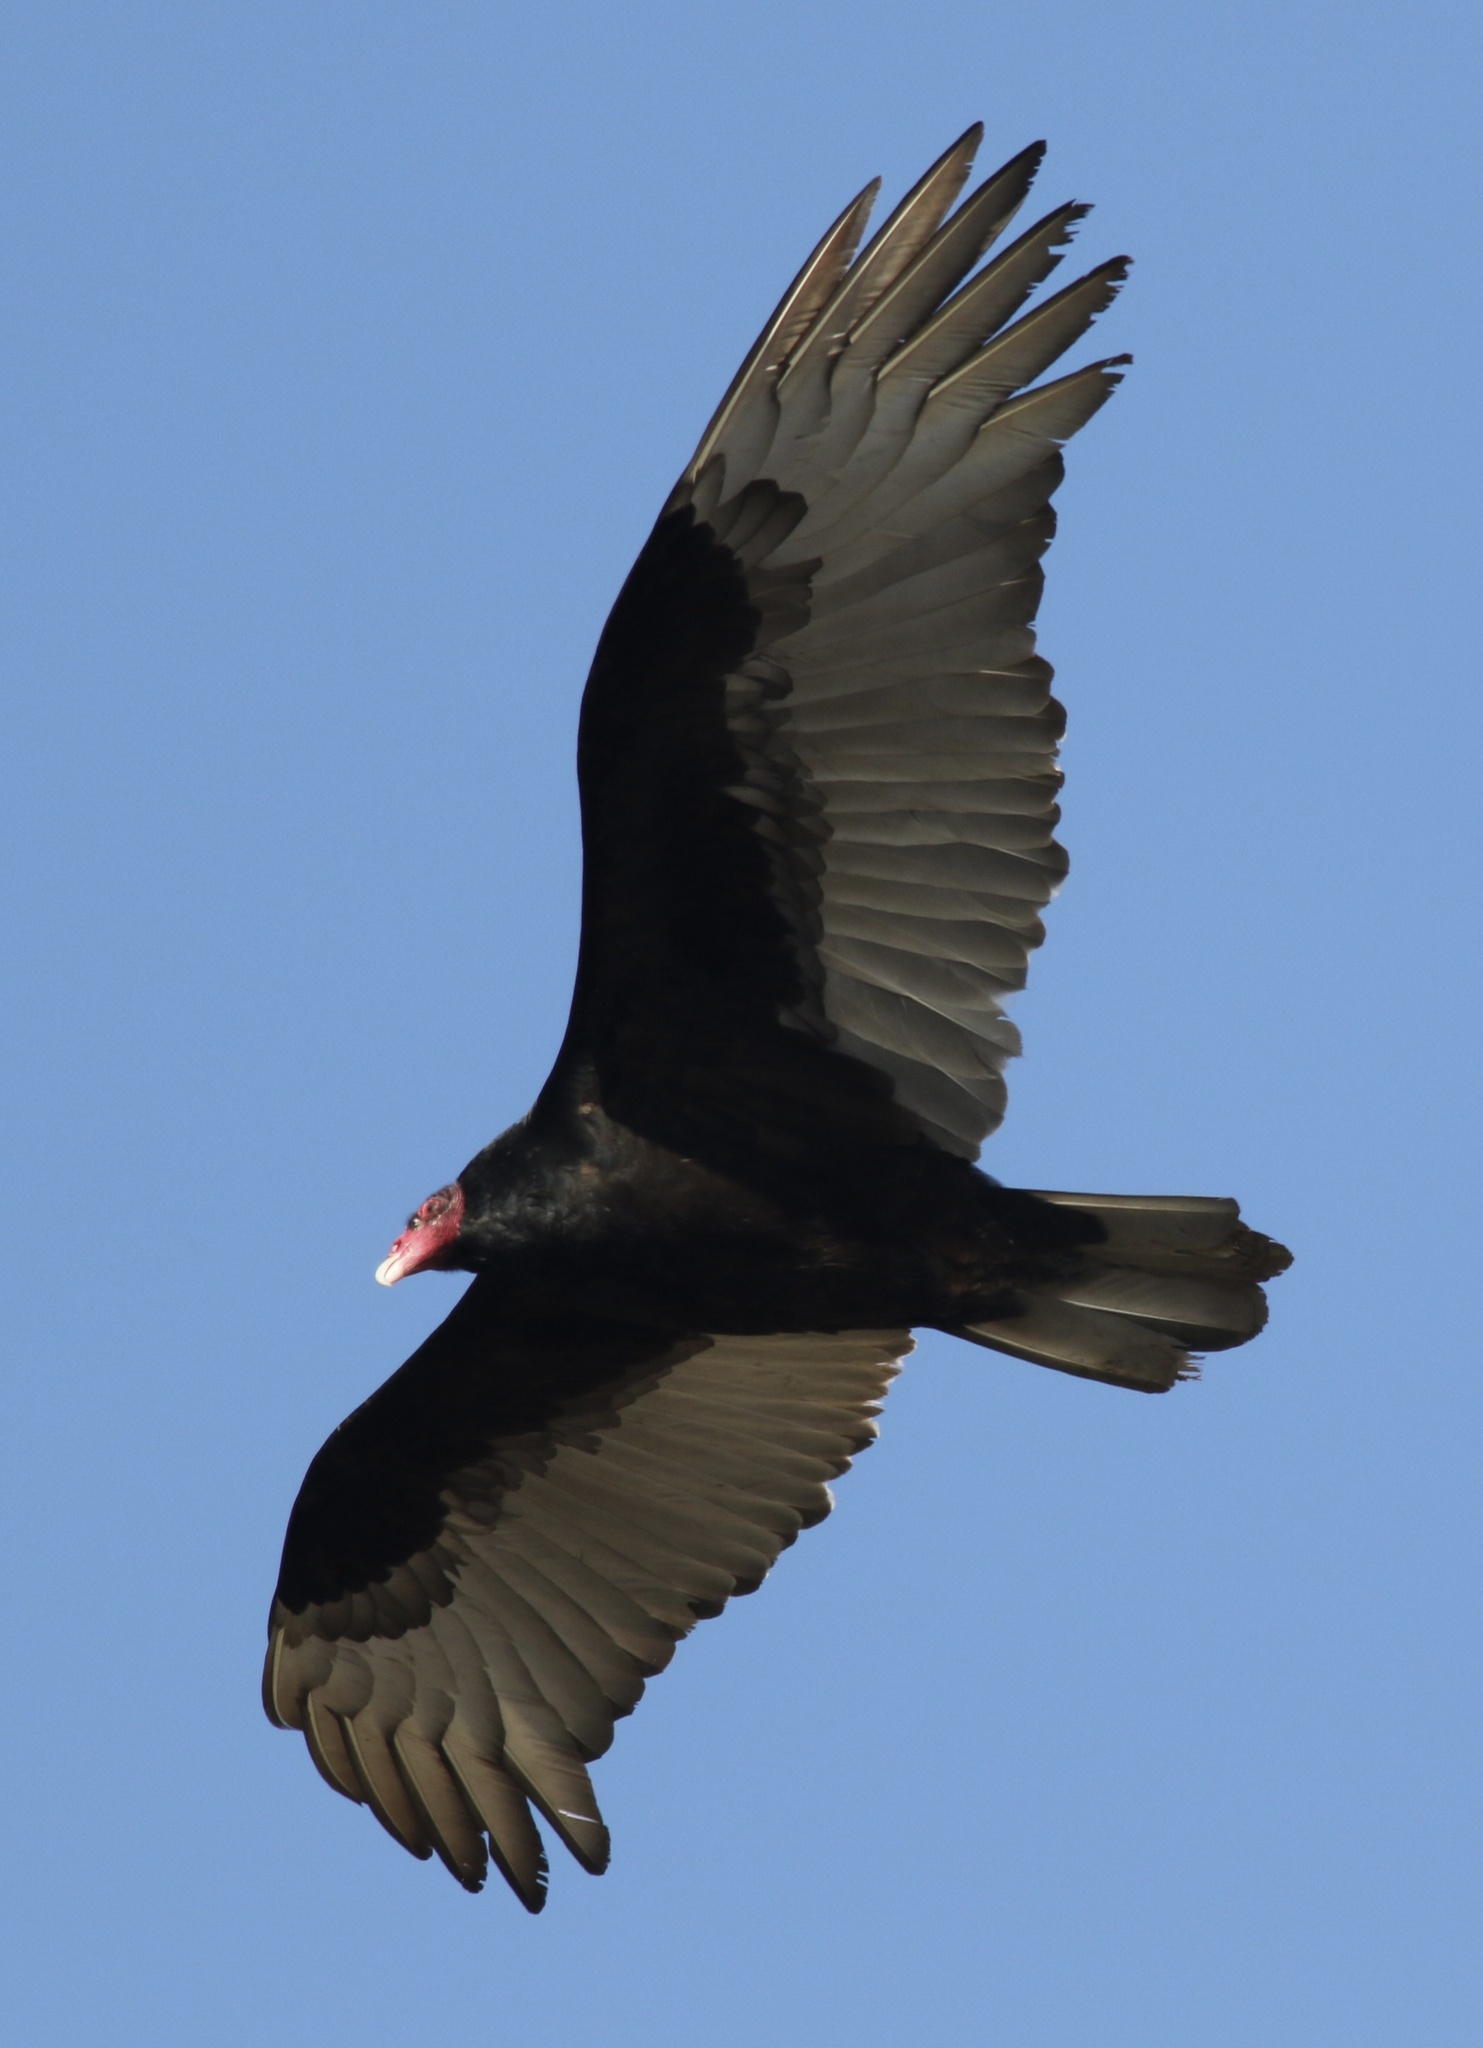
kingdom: Animalia
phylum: Chordata
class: Aves
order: Accipitriformes
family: Cathartidae
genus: Cathartes
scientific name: Cathartes aura
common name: Turkey vulture
